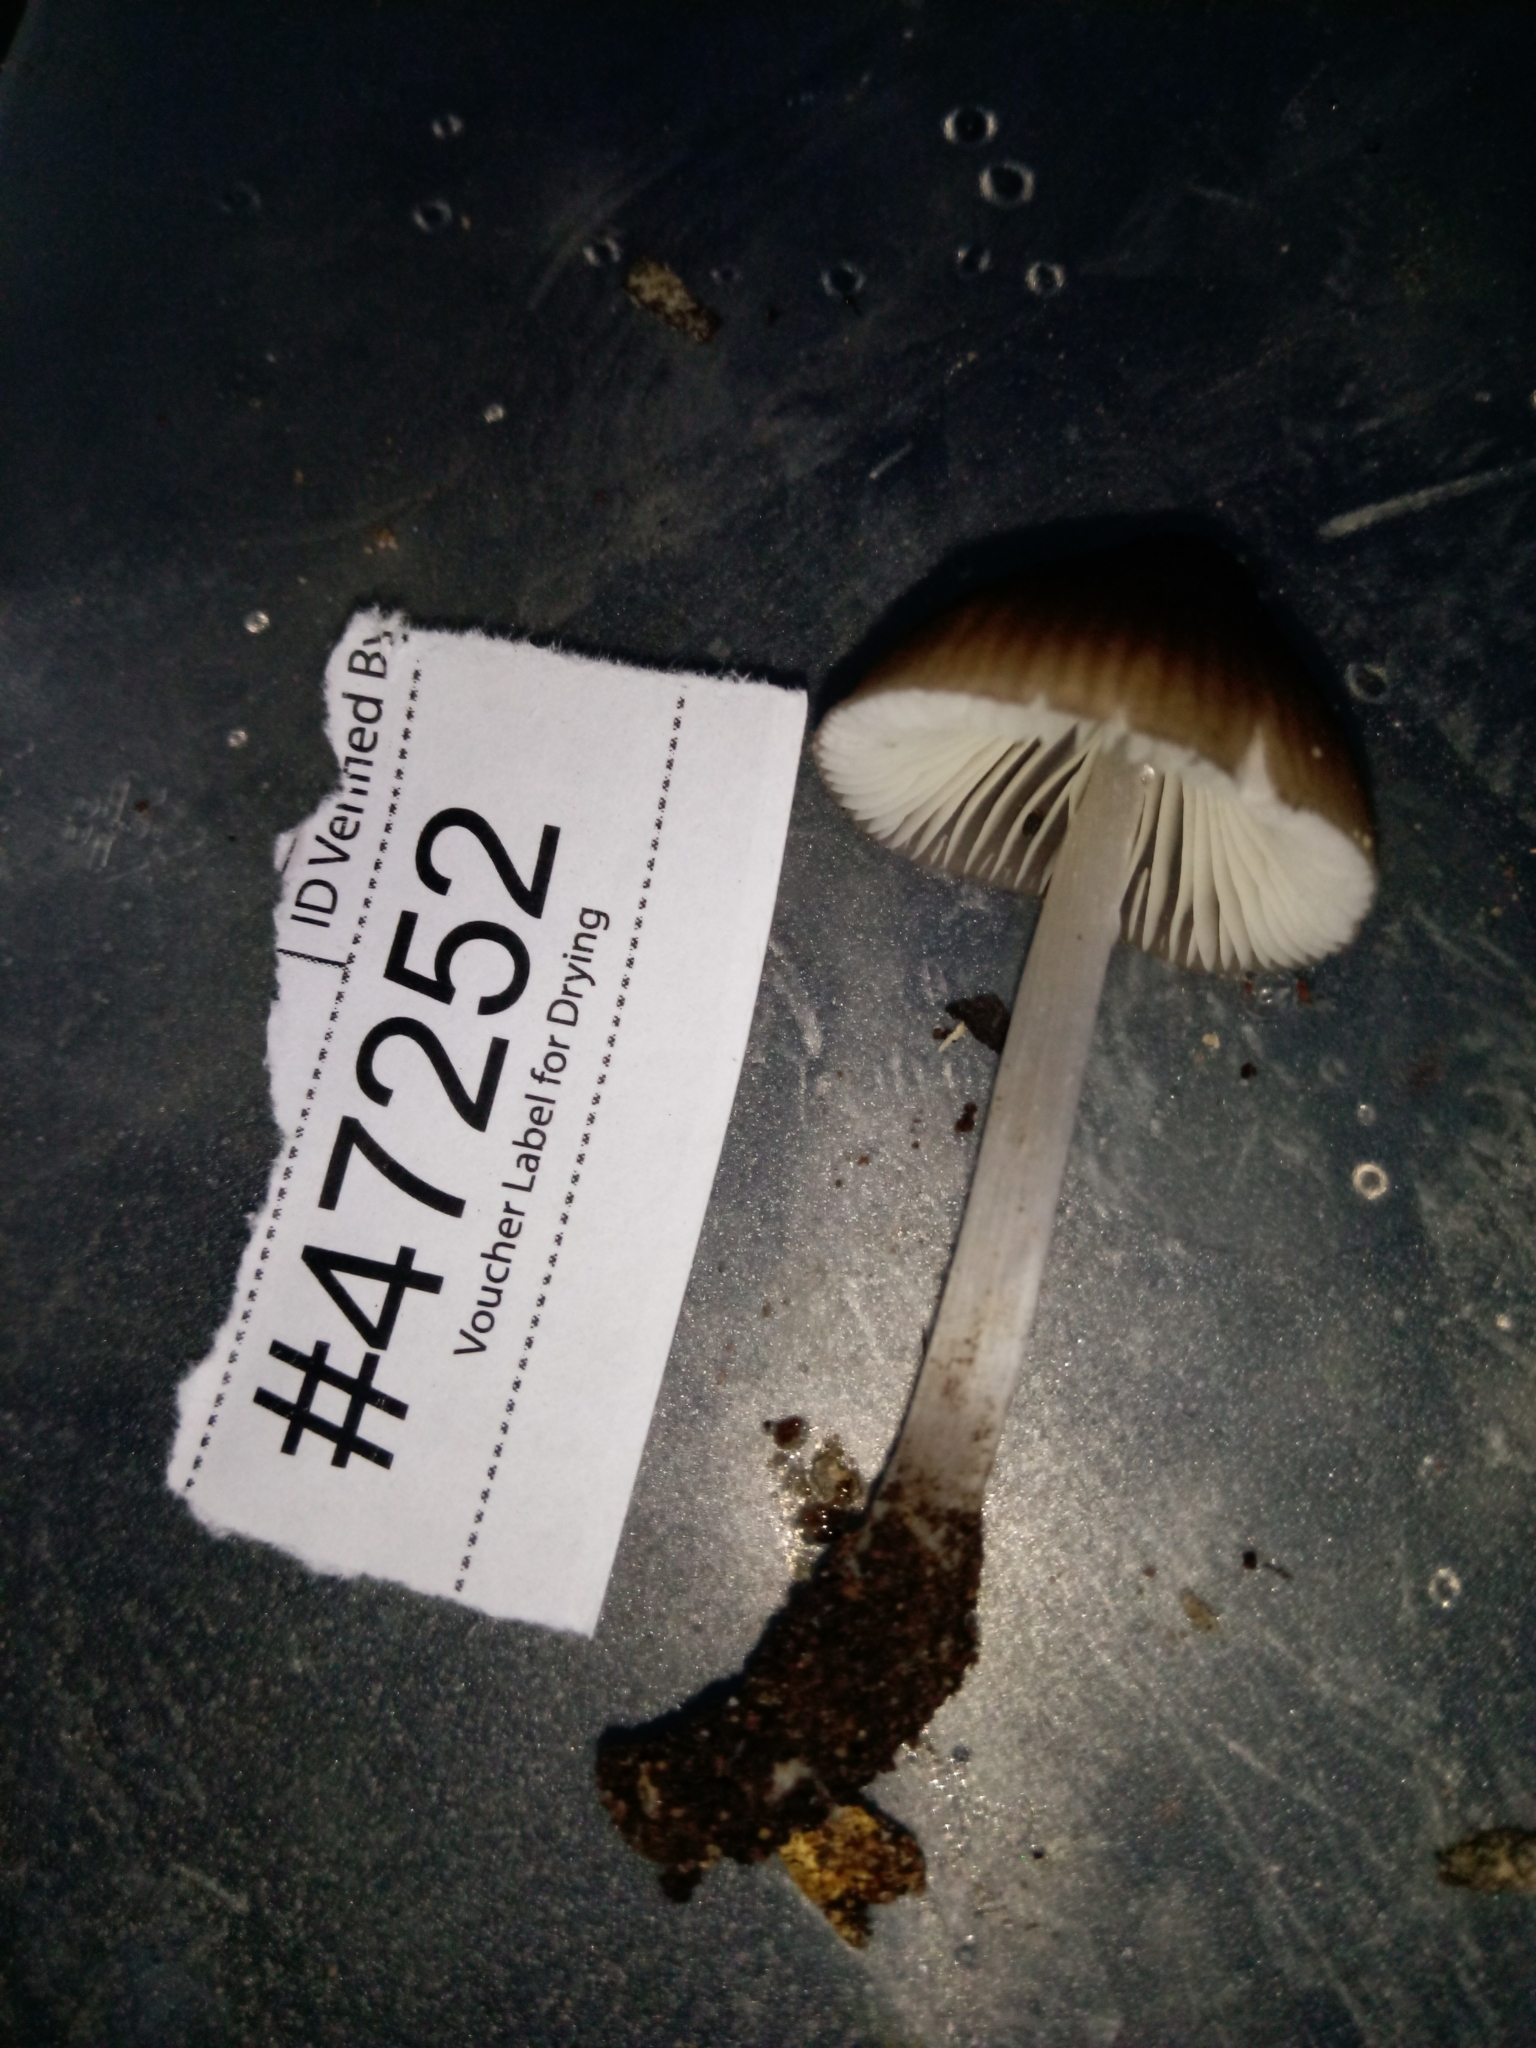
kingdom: Fungi
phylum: Basidiomycota
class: Agaricomycetes
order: Agaricales
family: Mycenaceae
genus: Mycena
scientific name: Mycena niveipes
